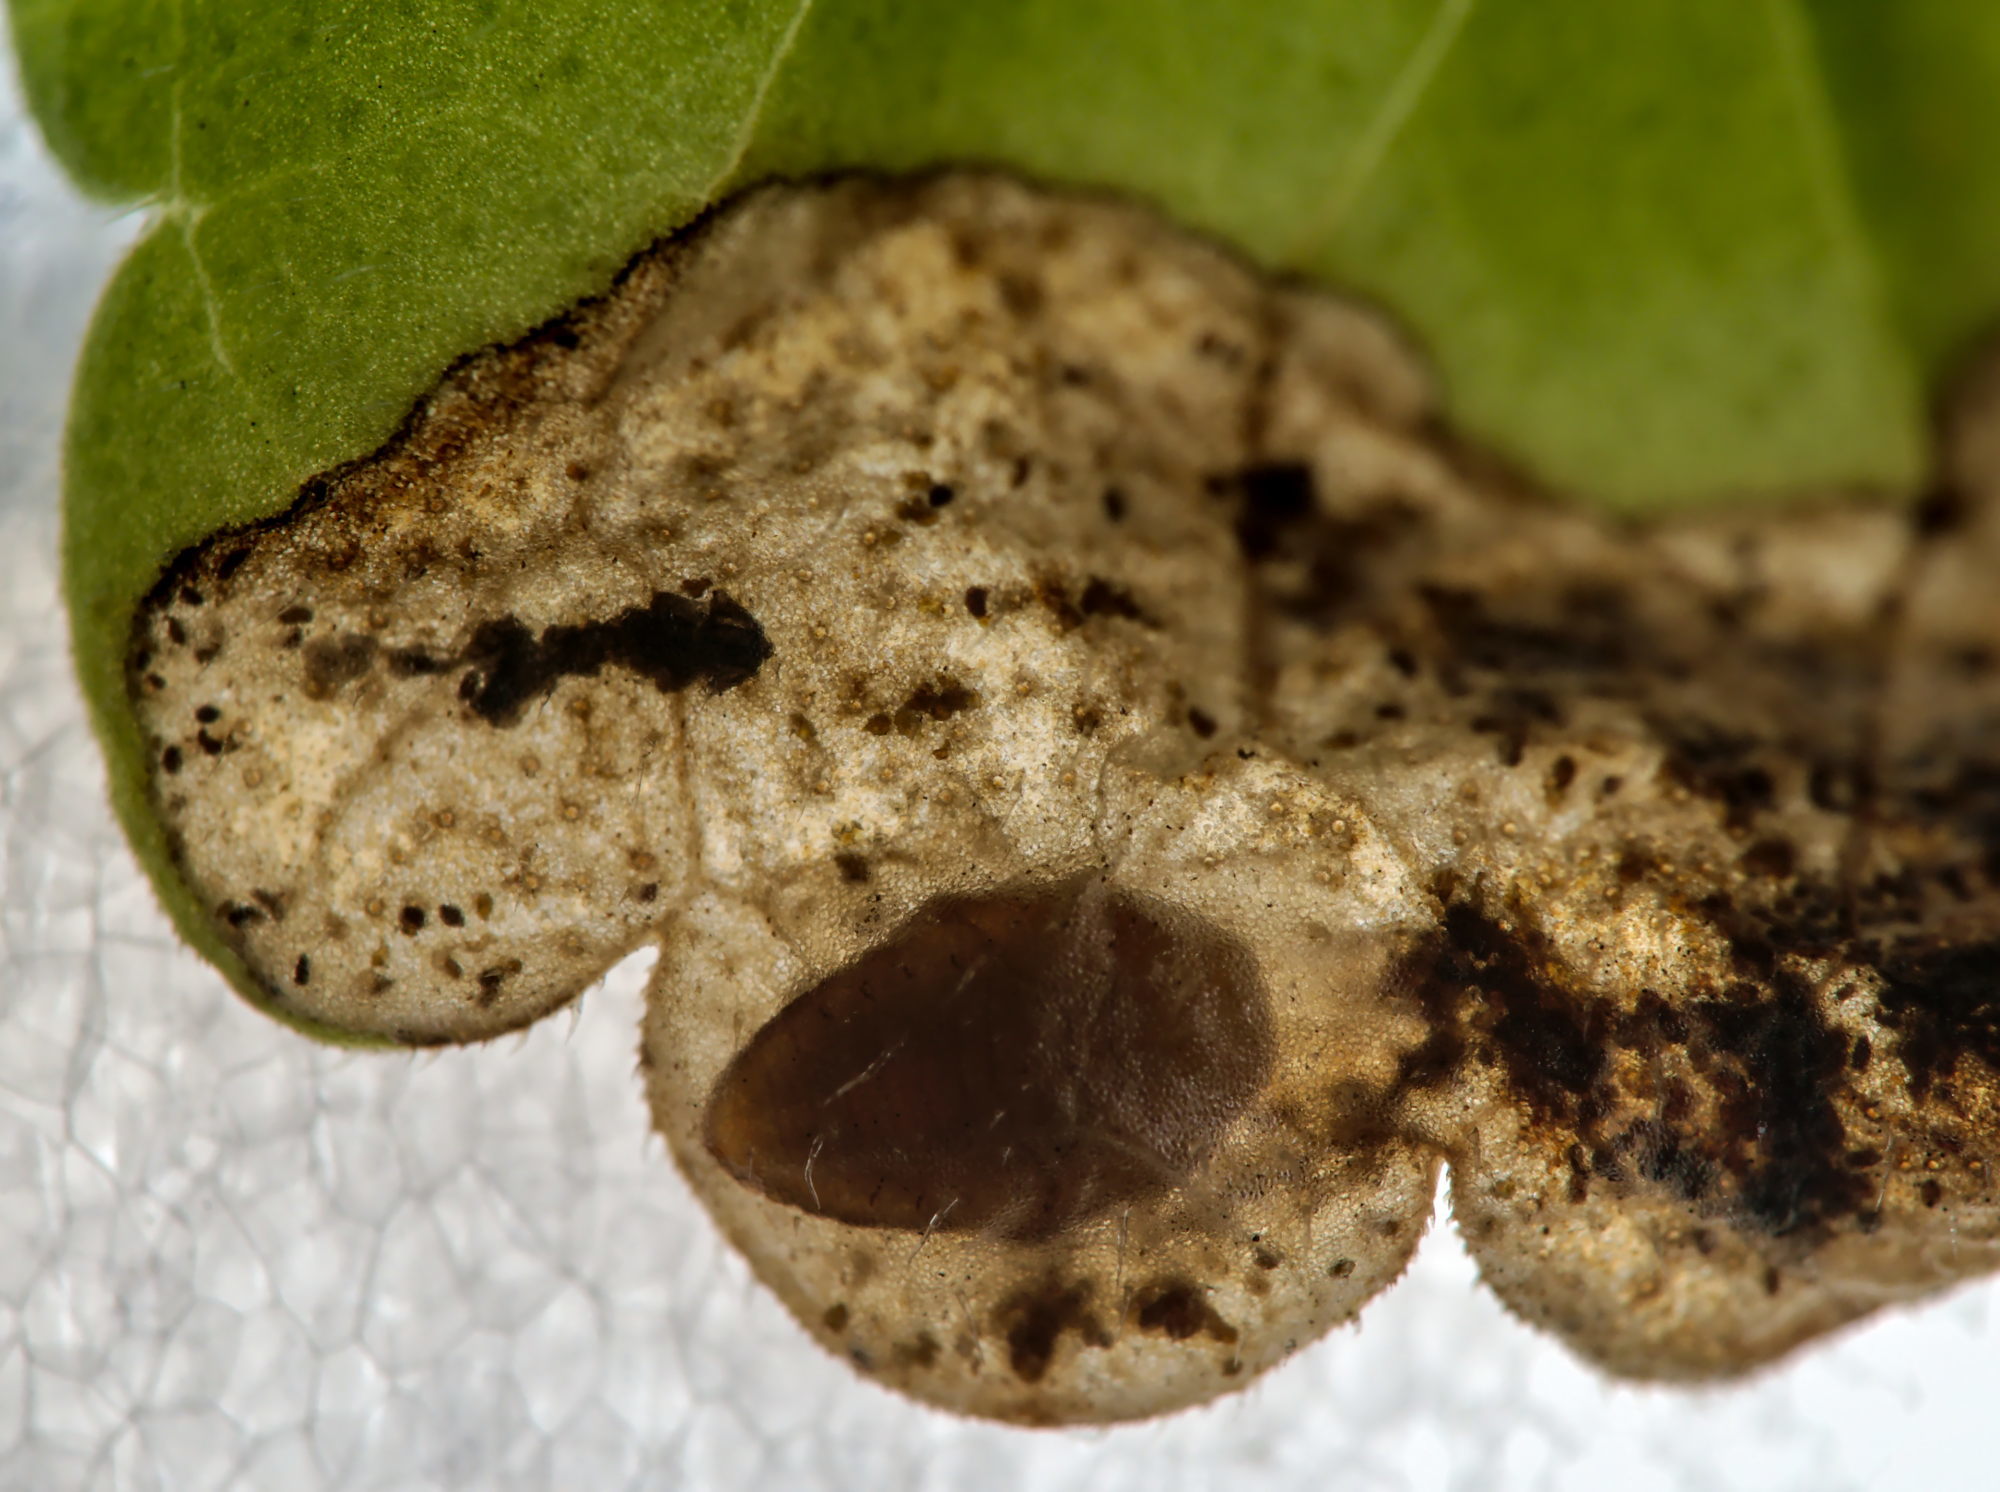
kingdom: Animalia
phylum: Arthropoda
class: Insecta
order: Coleoptera
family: Buprestidae
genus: Trachys
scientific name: Trachys scrobiculatus
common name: Ground-ivy jewel beetle
